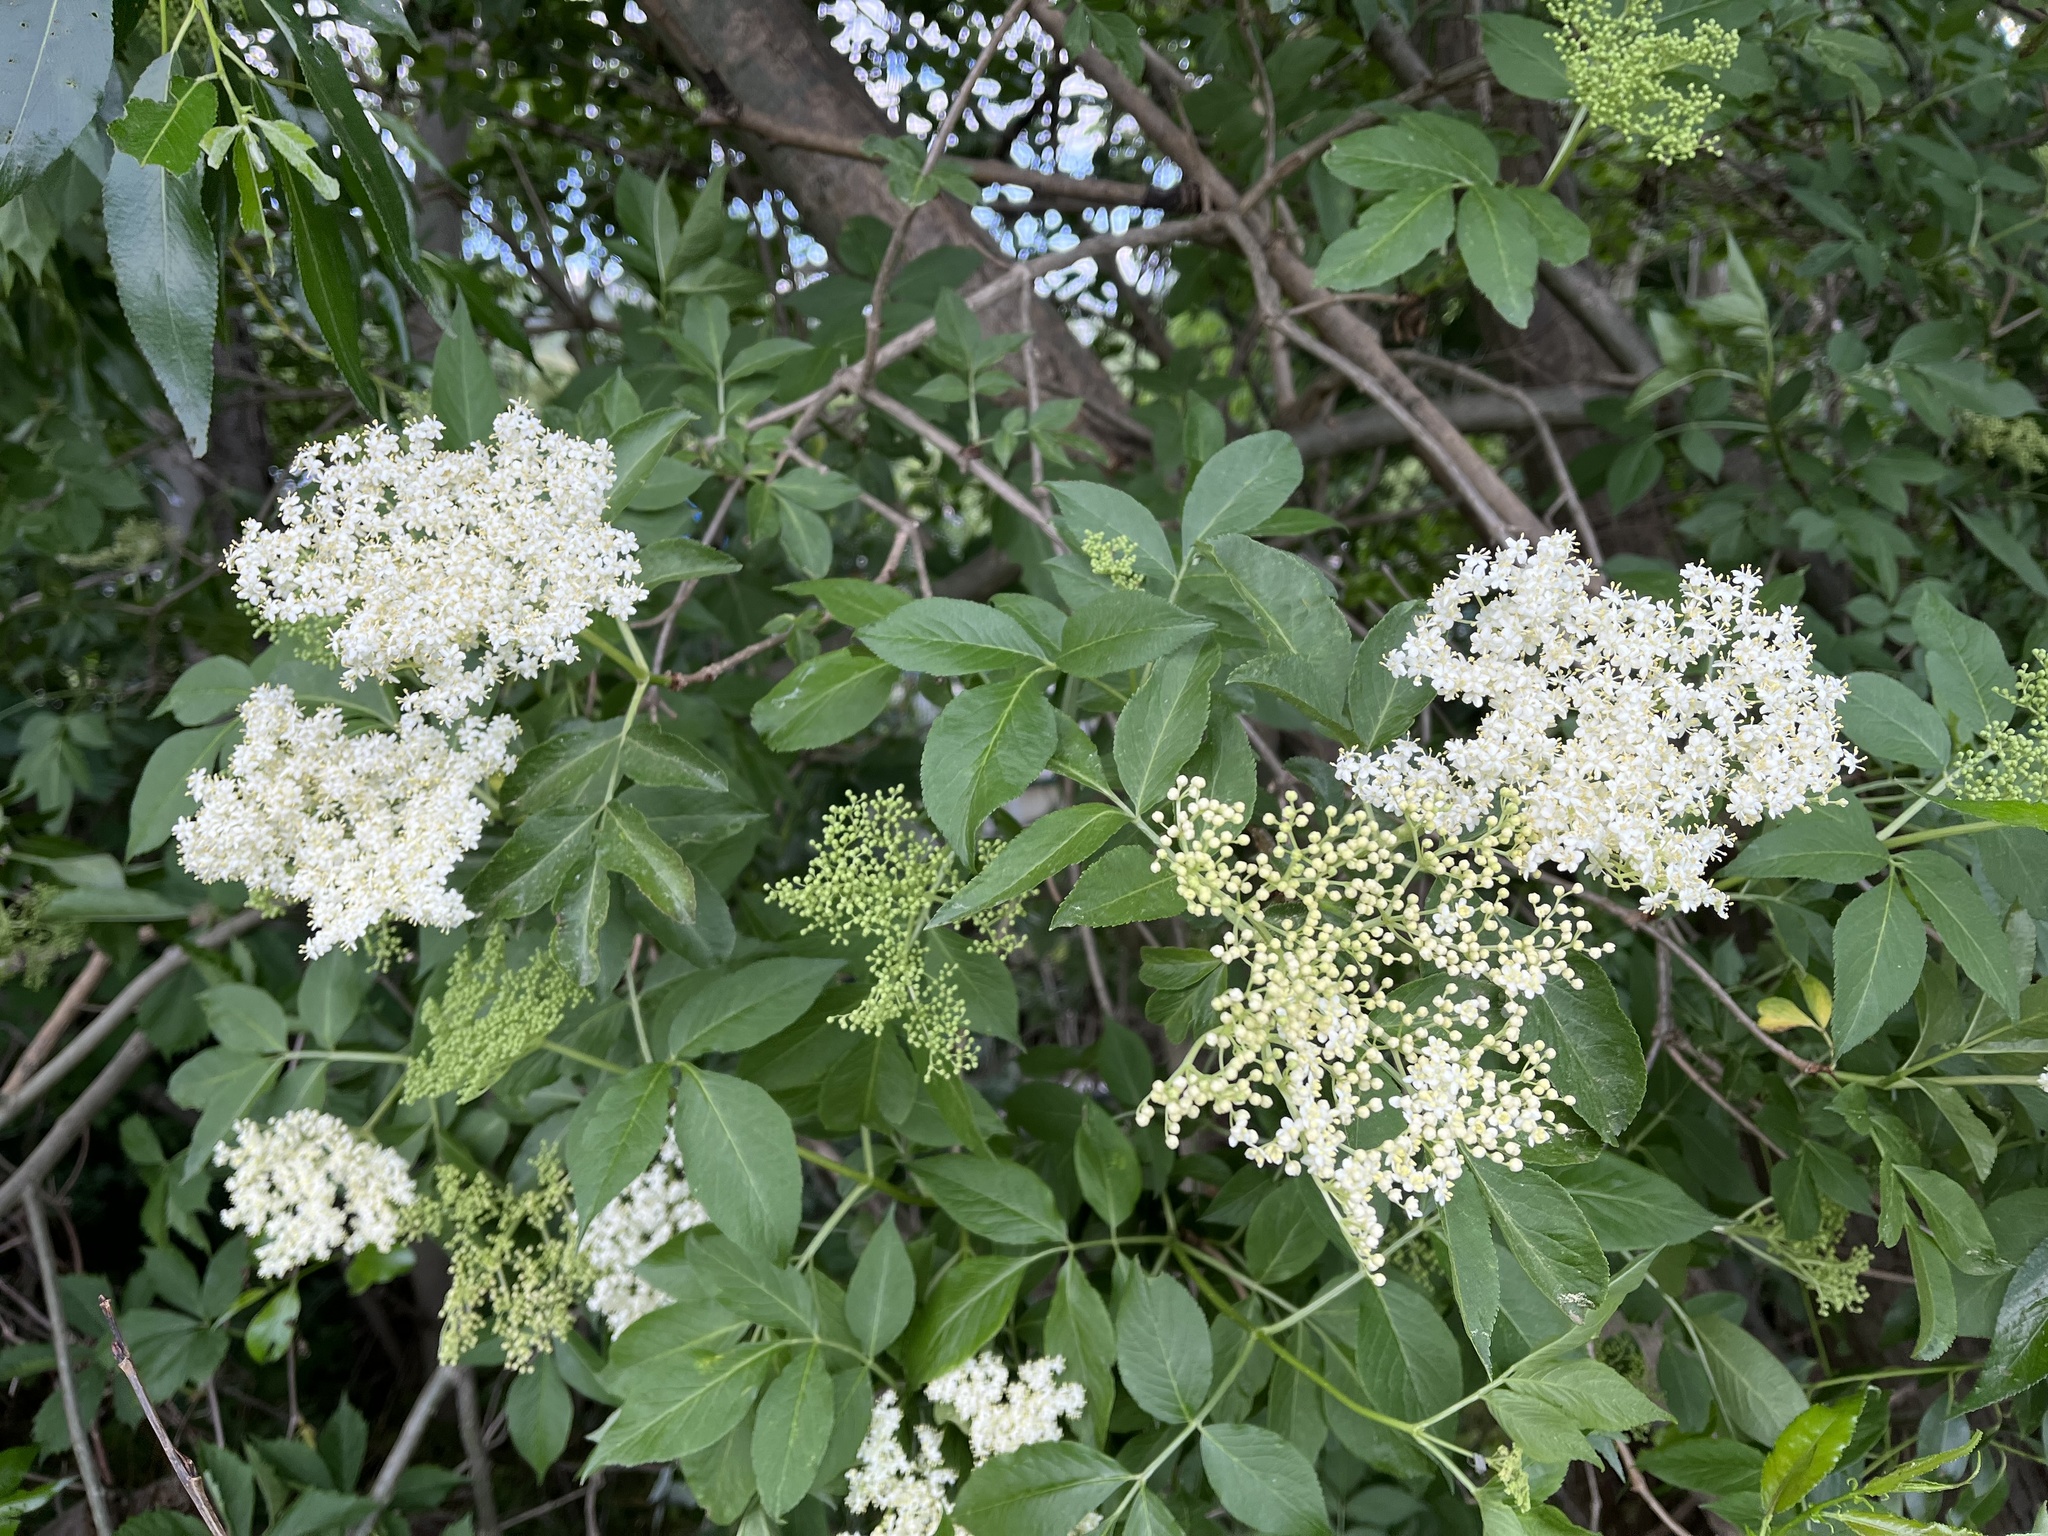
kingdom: Plantae
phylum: Tracheophyta
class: Magnoliopsida
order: Dipsacales
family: Viburnaceae
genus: Sambucus
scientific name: Sambucus nigra
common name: Elder
